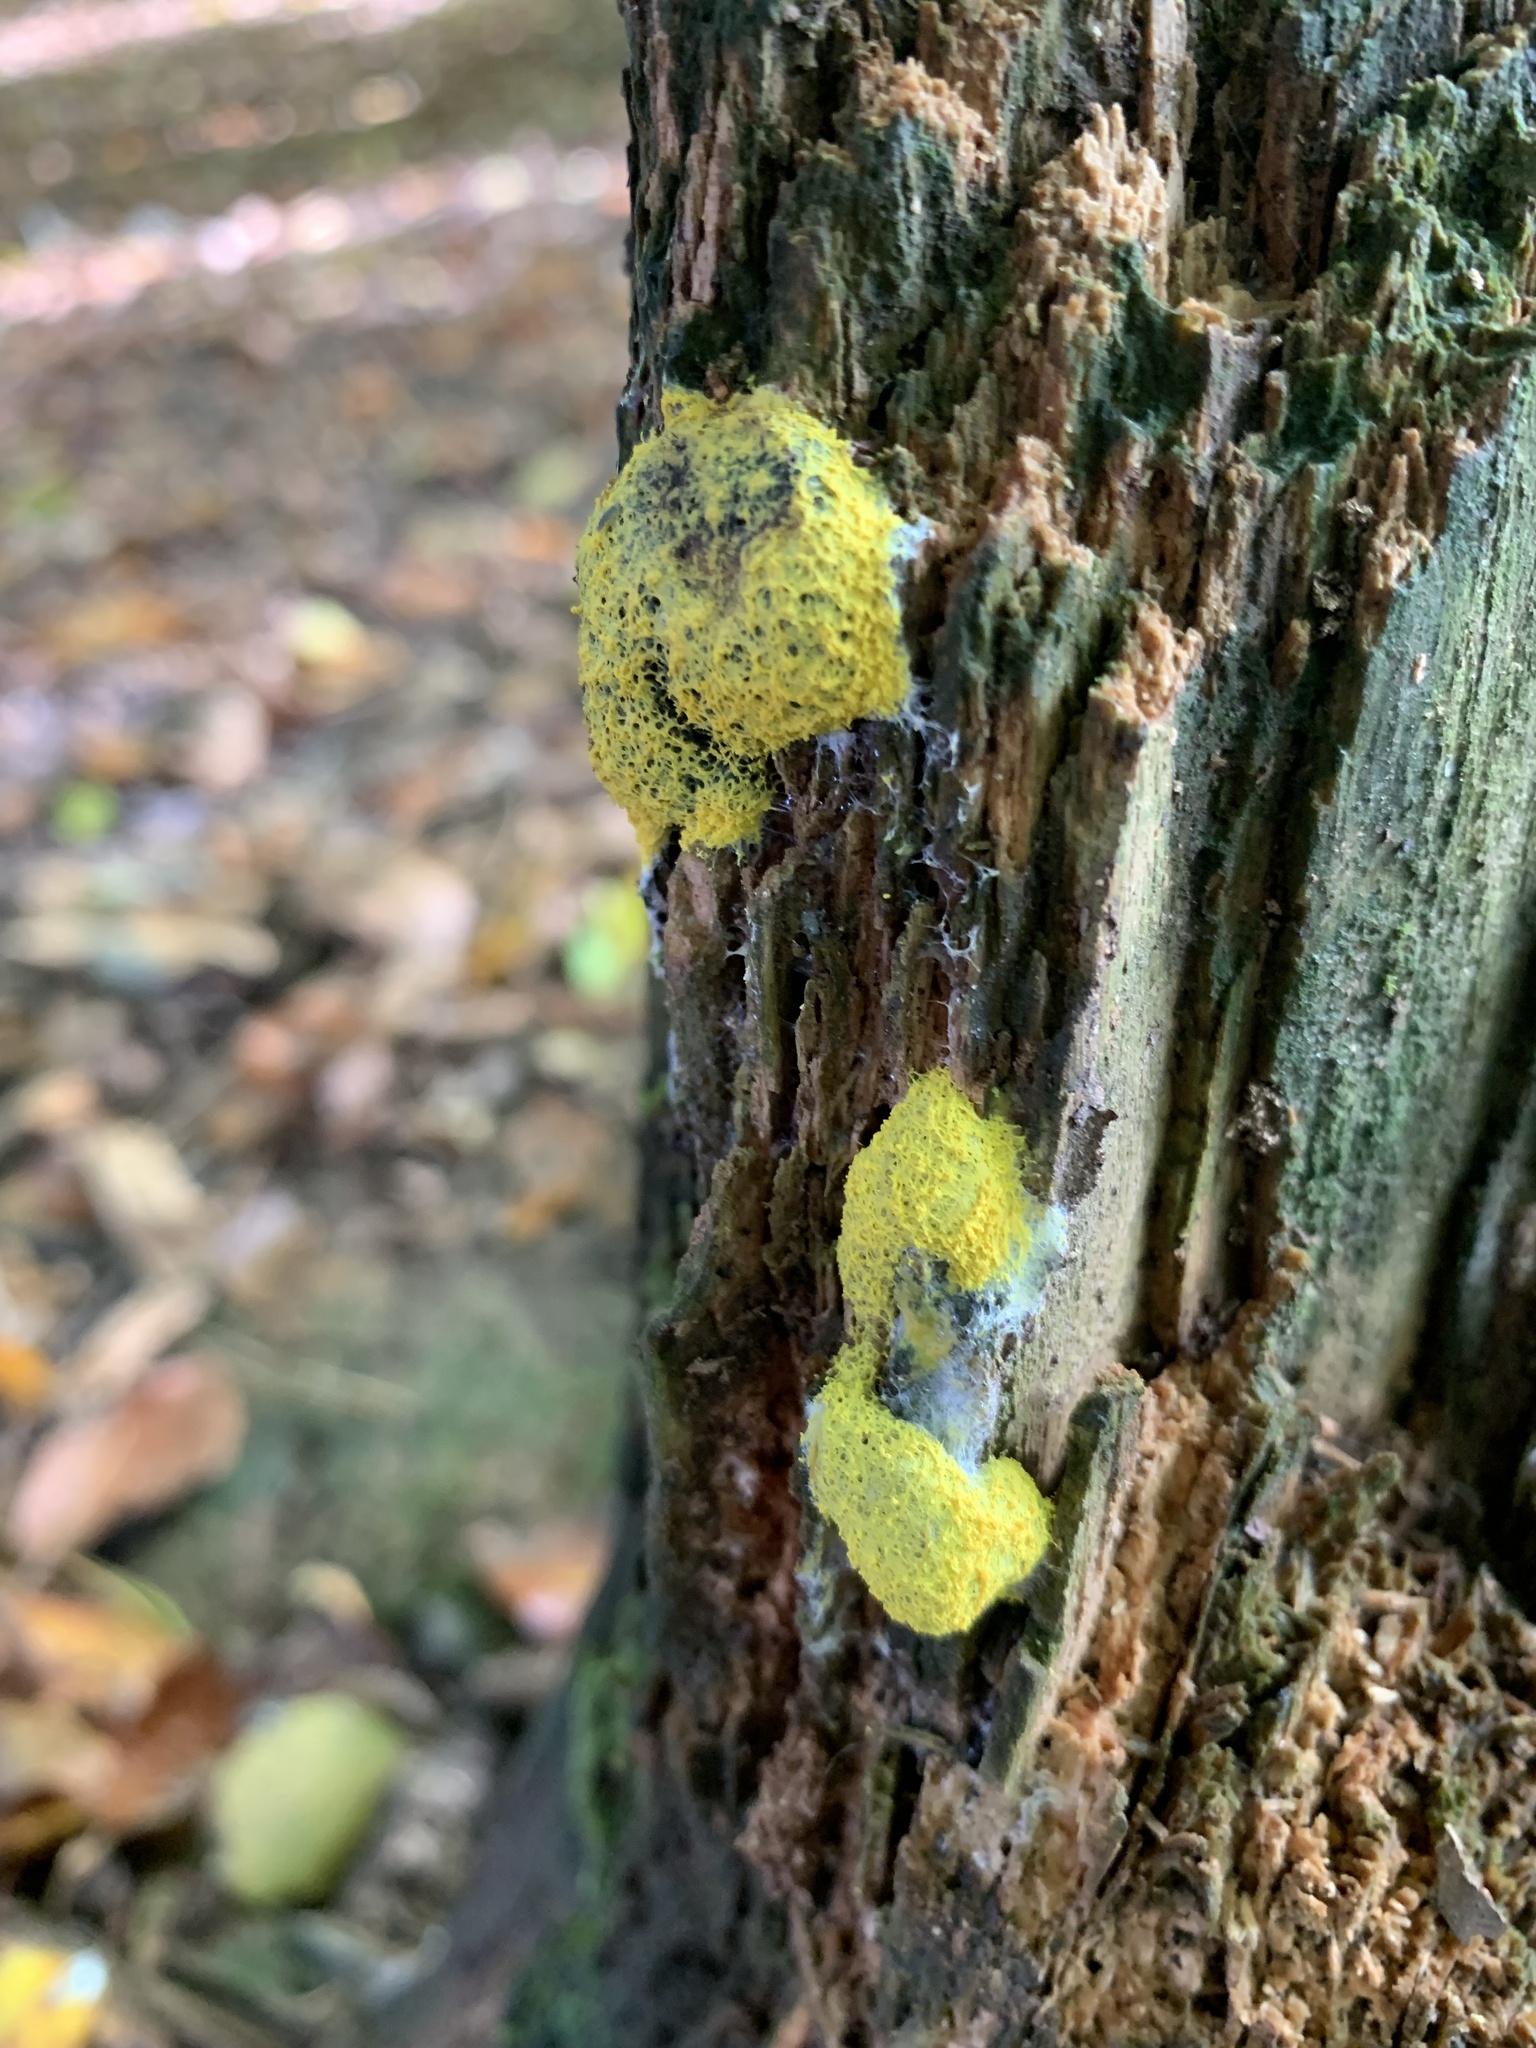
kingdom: Protozoa
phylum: Mycetozoa
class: Myxomycetes
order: Physarales
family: Physaraceae
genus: Fuligo
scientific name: Fuligo septica
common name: Dog vomit slime mold
